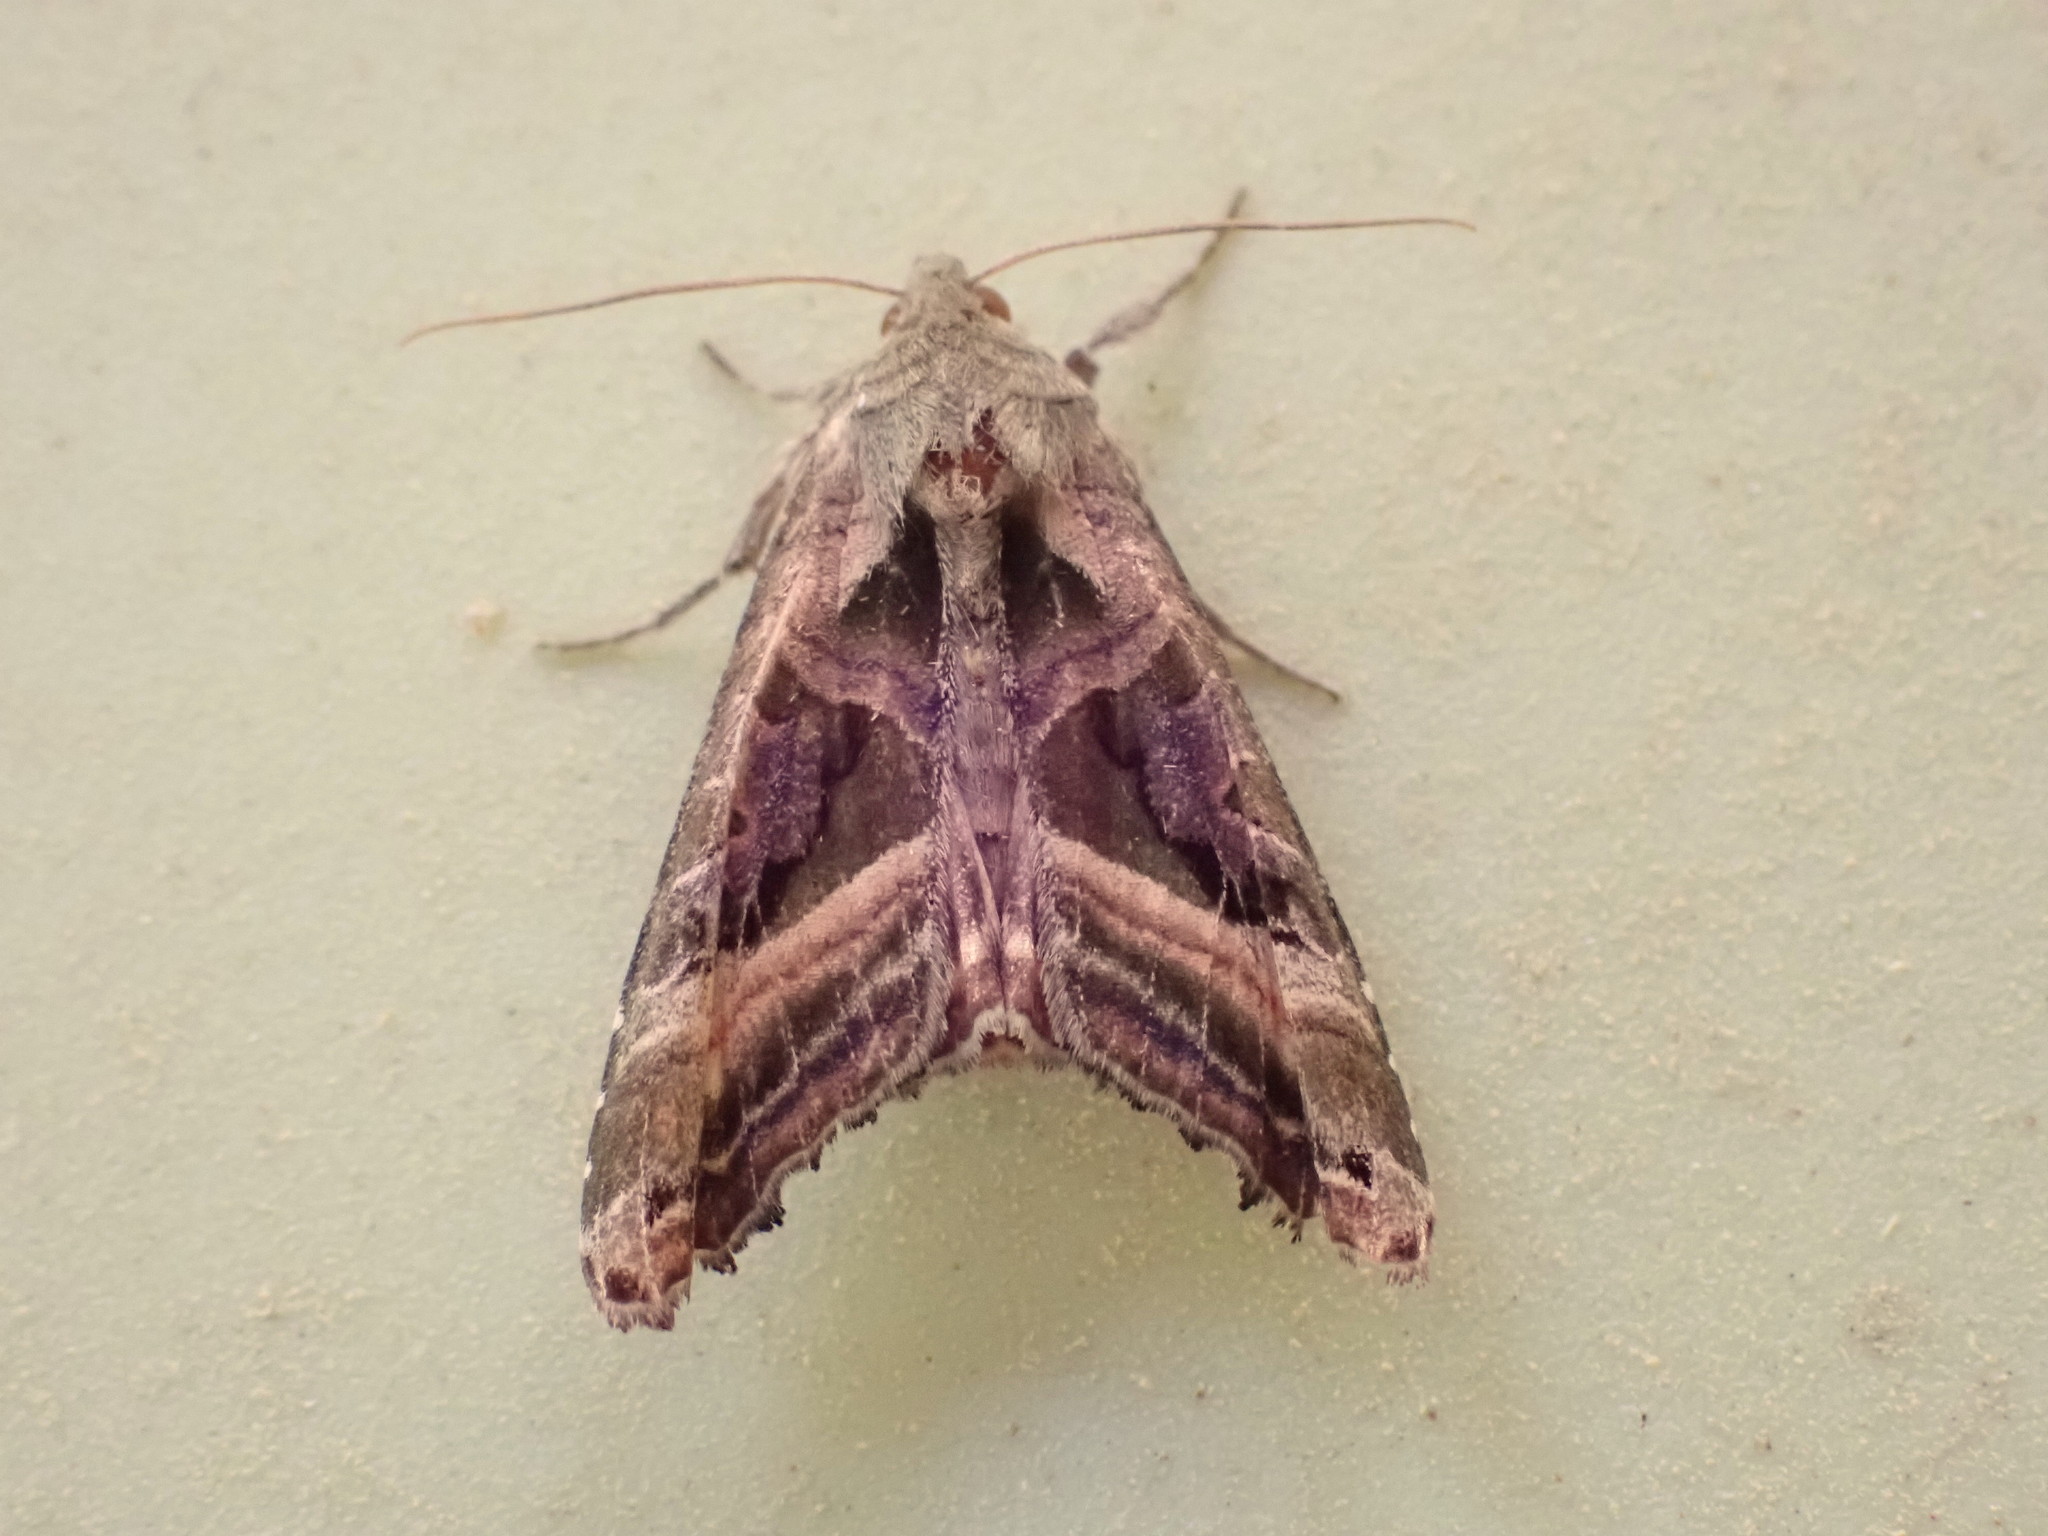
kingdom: Animalia
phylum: Arthropoda
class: Insecta
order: Lepidoptera
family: Noctuidae
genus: Phlogophora
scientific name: Phlogophora iris
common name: Olive angle shades
